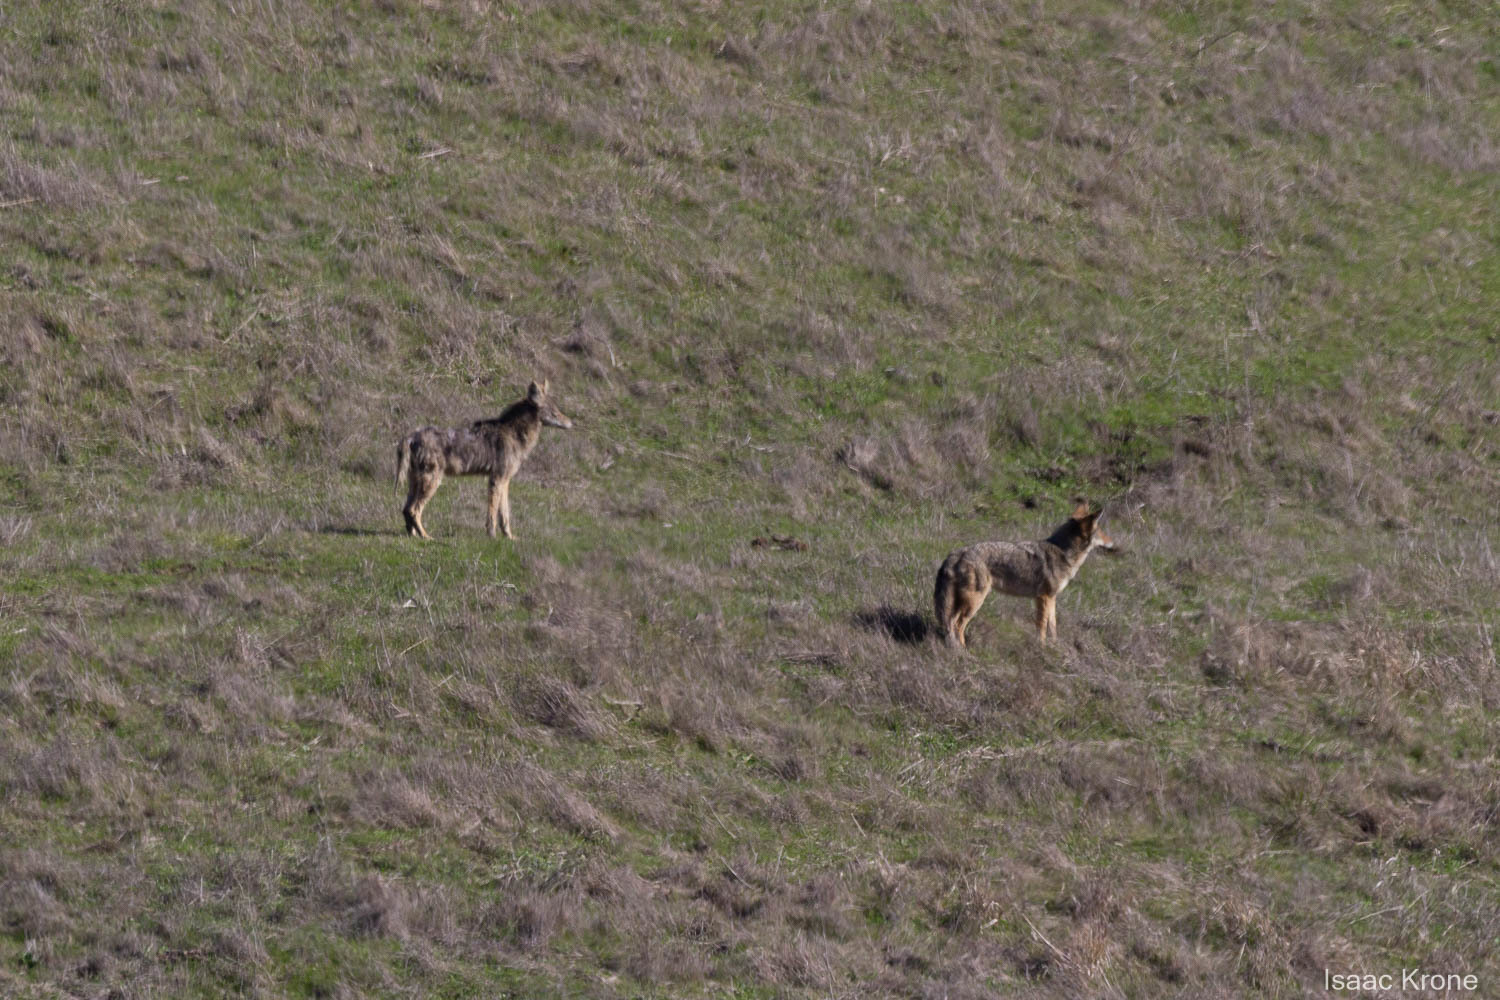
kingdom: Animalia
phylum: Chordata
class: Mammalia
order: Carnivora
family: Canidae
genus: Canis
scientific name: Canis latrans
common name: Coyote
